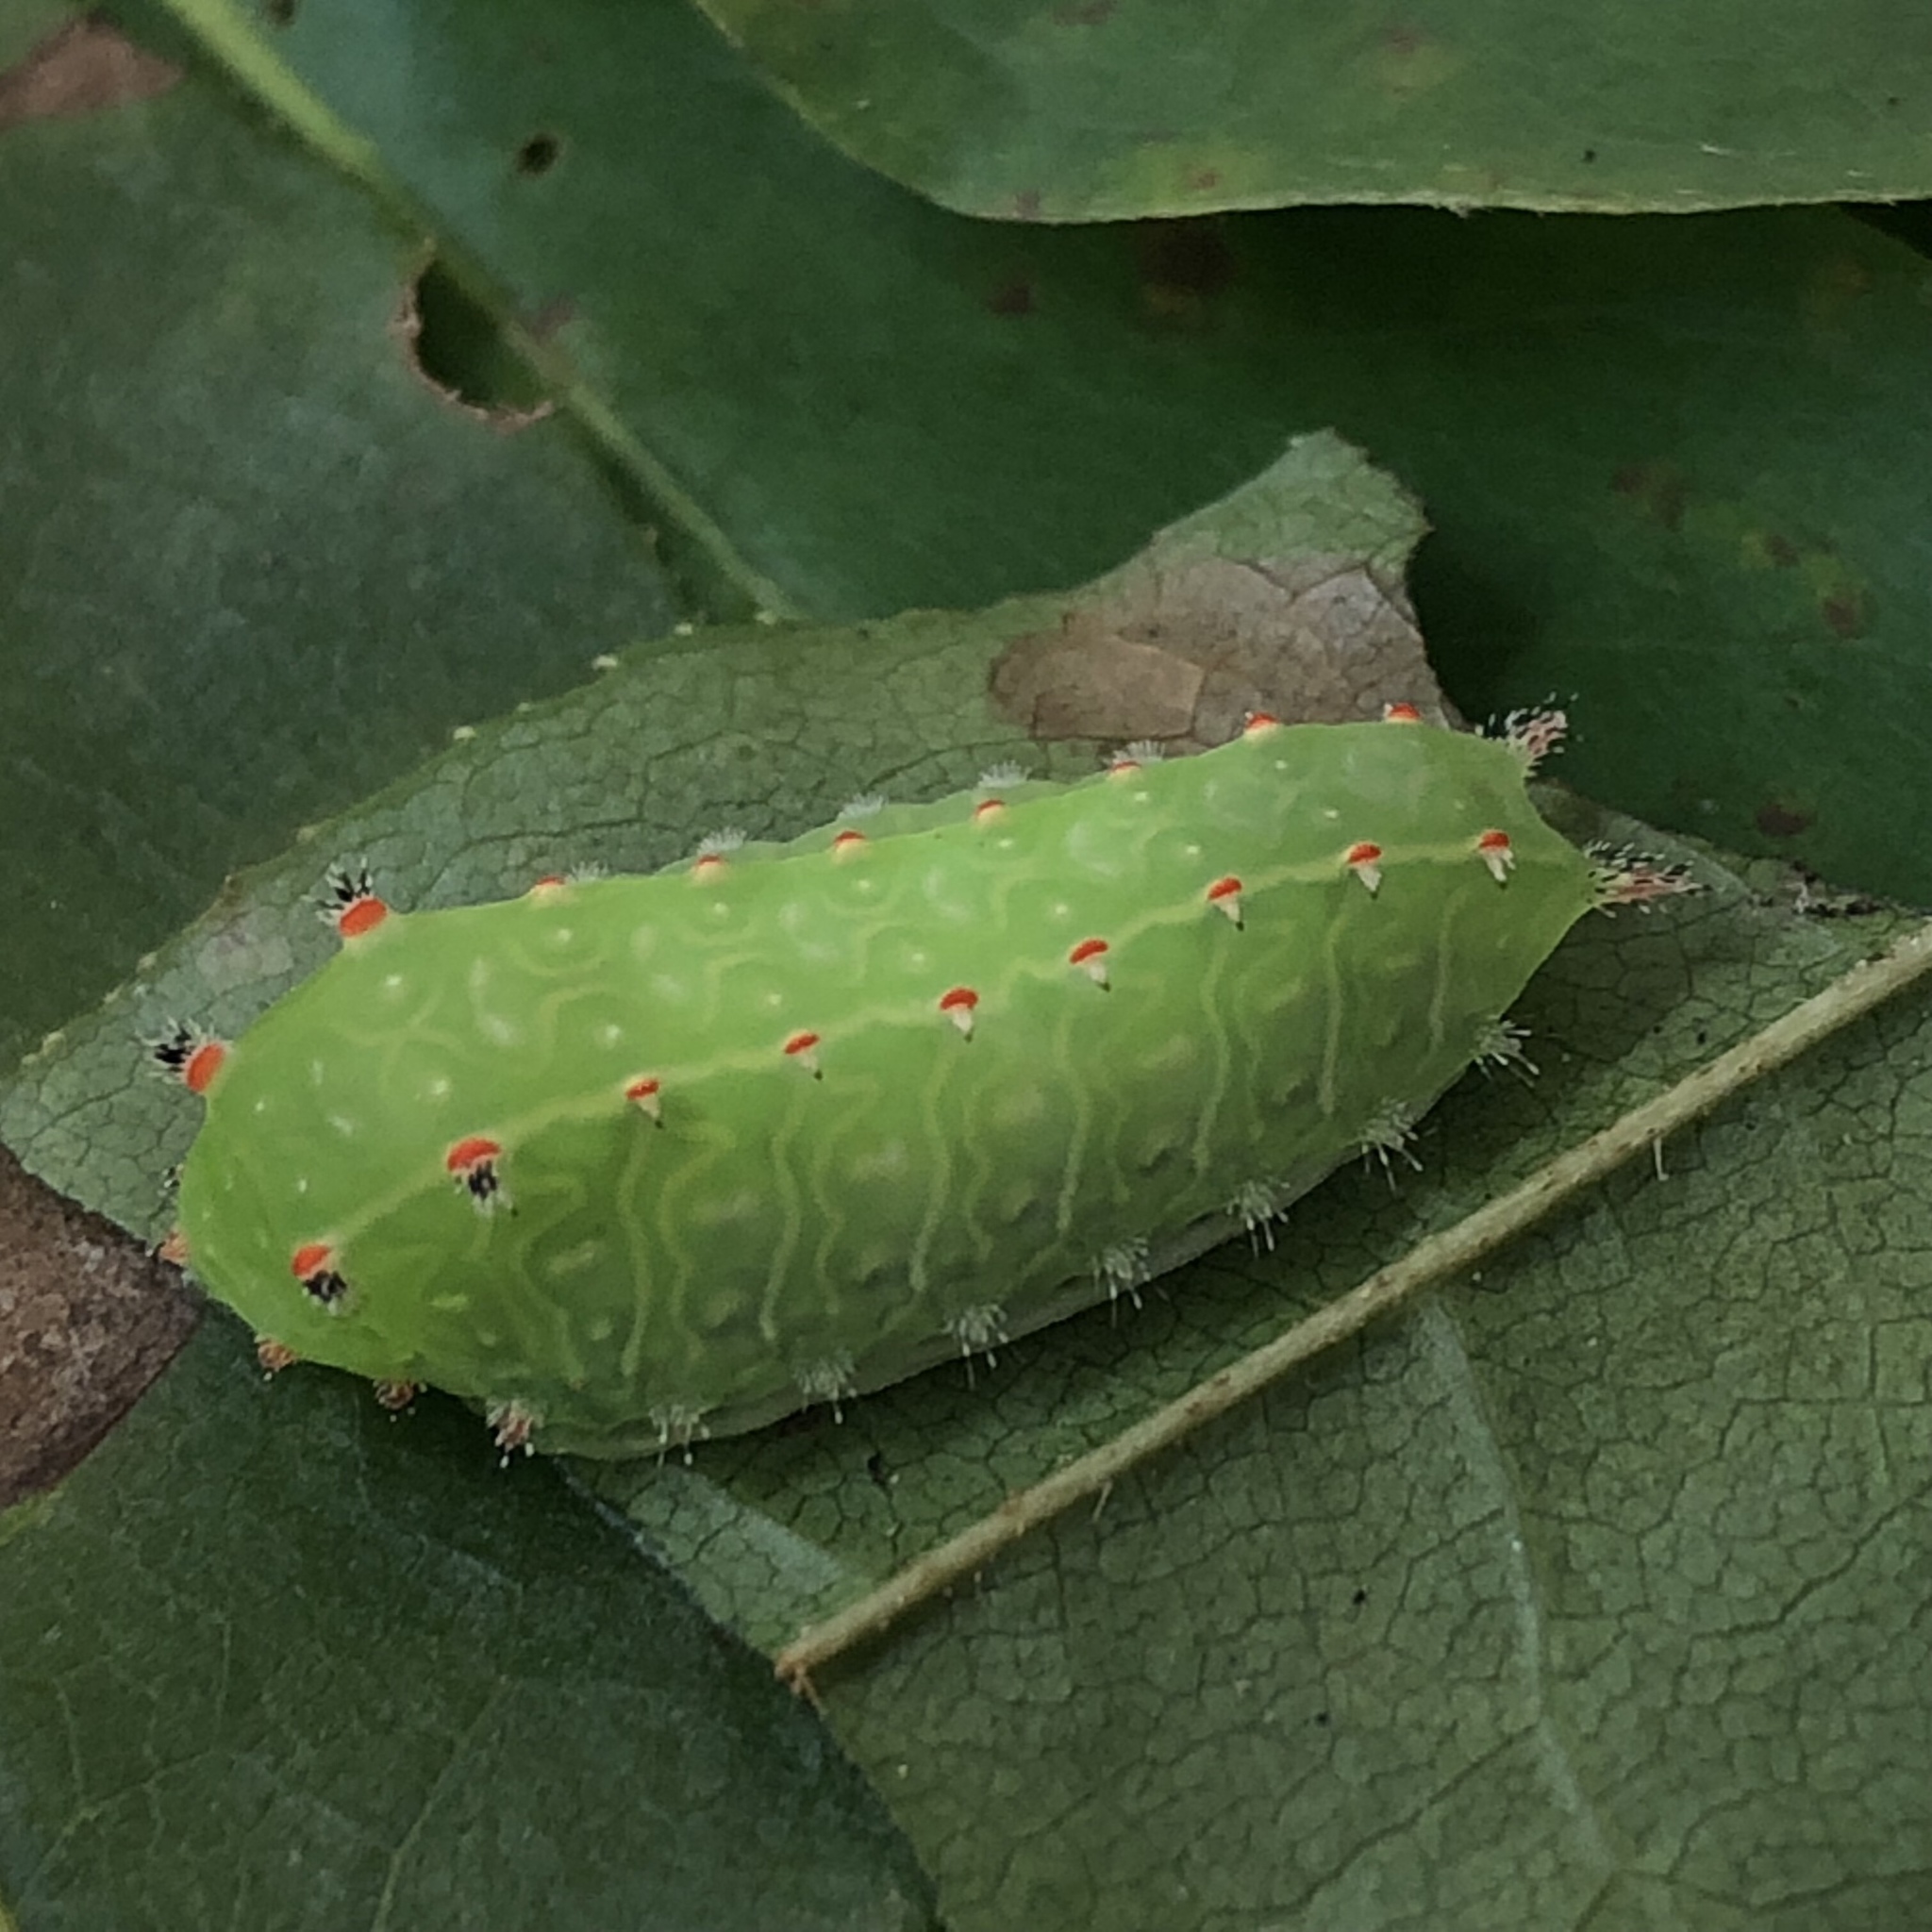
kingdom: Animalia
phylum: Arthropoda
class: Insecta
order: Lepidoptera
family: Limacodidae
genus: Natada
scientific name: Natada nasoni
